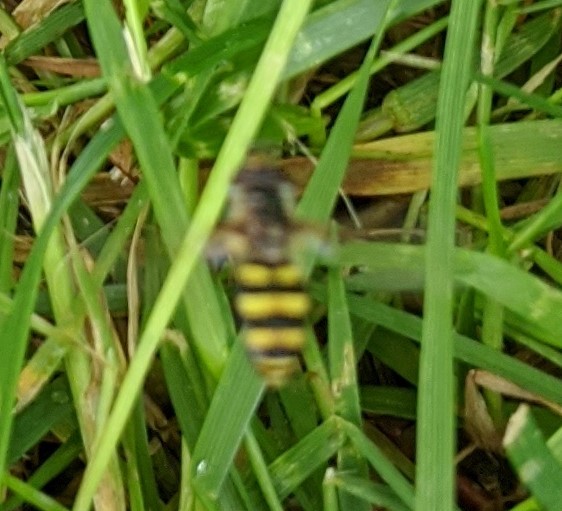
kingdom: Animalia
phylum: Arthropoda
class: Insecta
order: Diptera
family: Syrphidae
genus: Eupeodes
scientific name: Eupeodes
